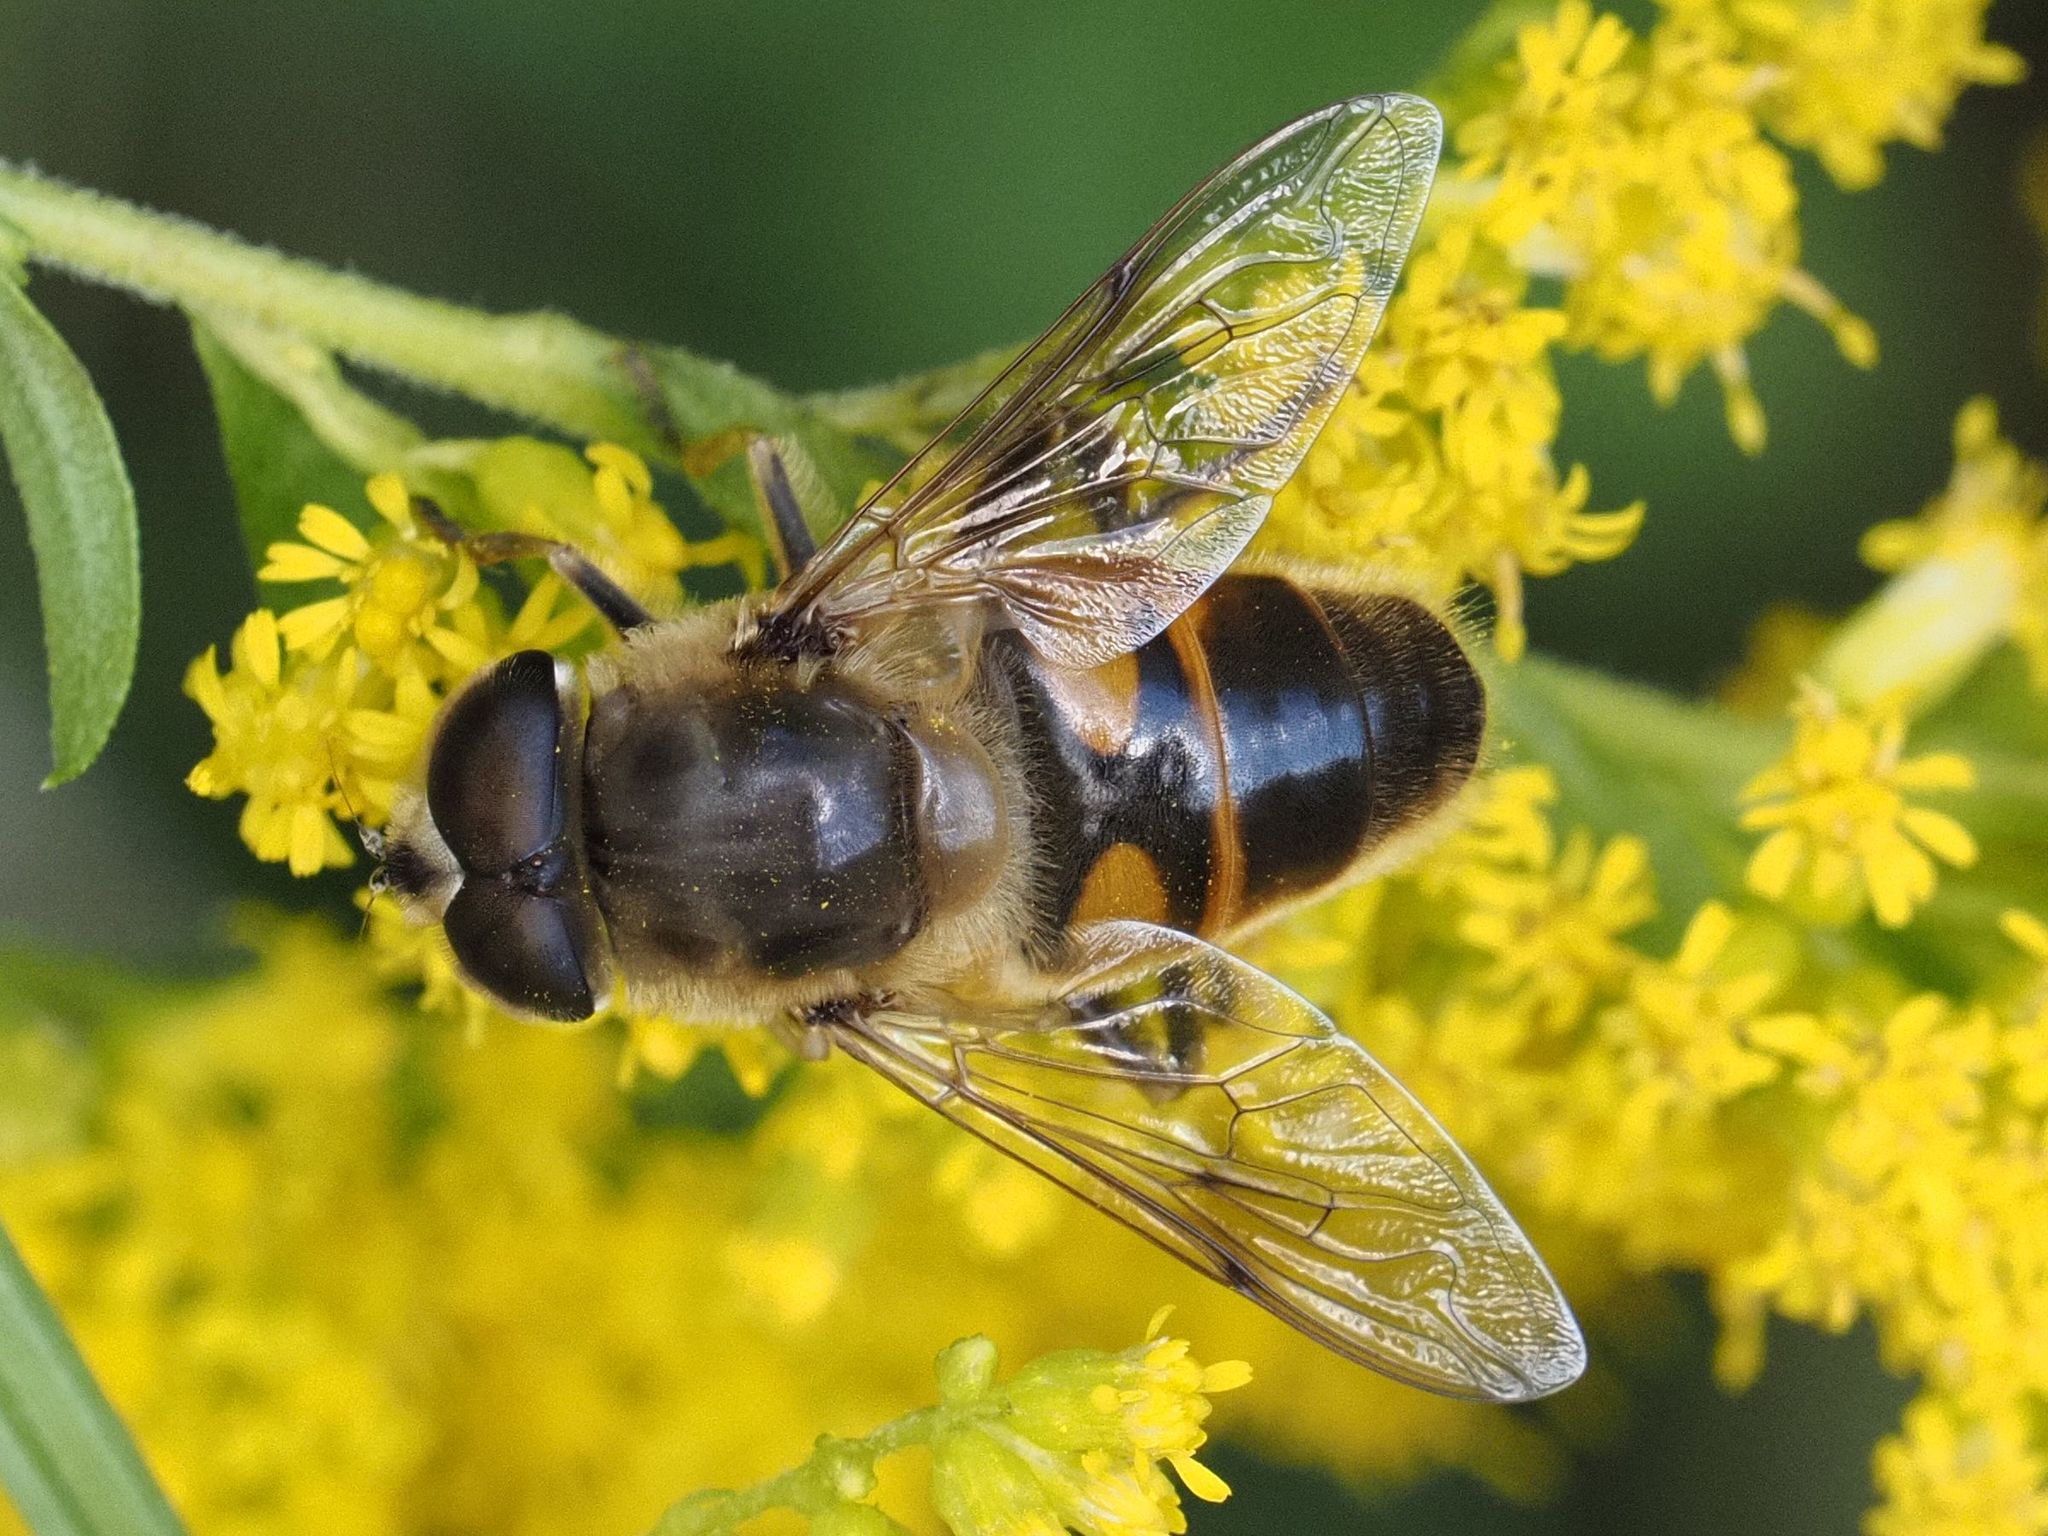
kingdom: Animalia
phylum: Arthropoda
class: Insecta
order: Diptera
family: Syrphidae
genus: Eristalis
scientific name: Eristalis tenax
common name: Drone fly
